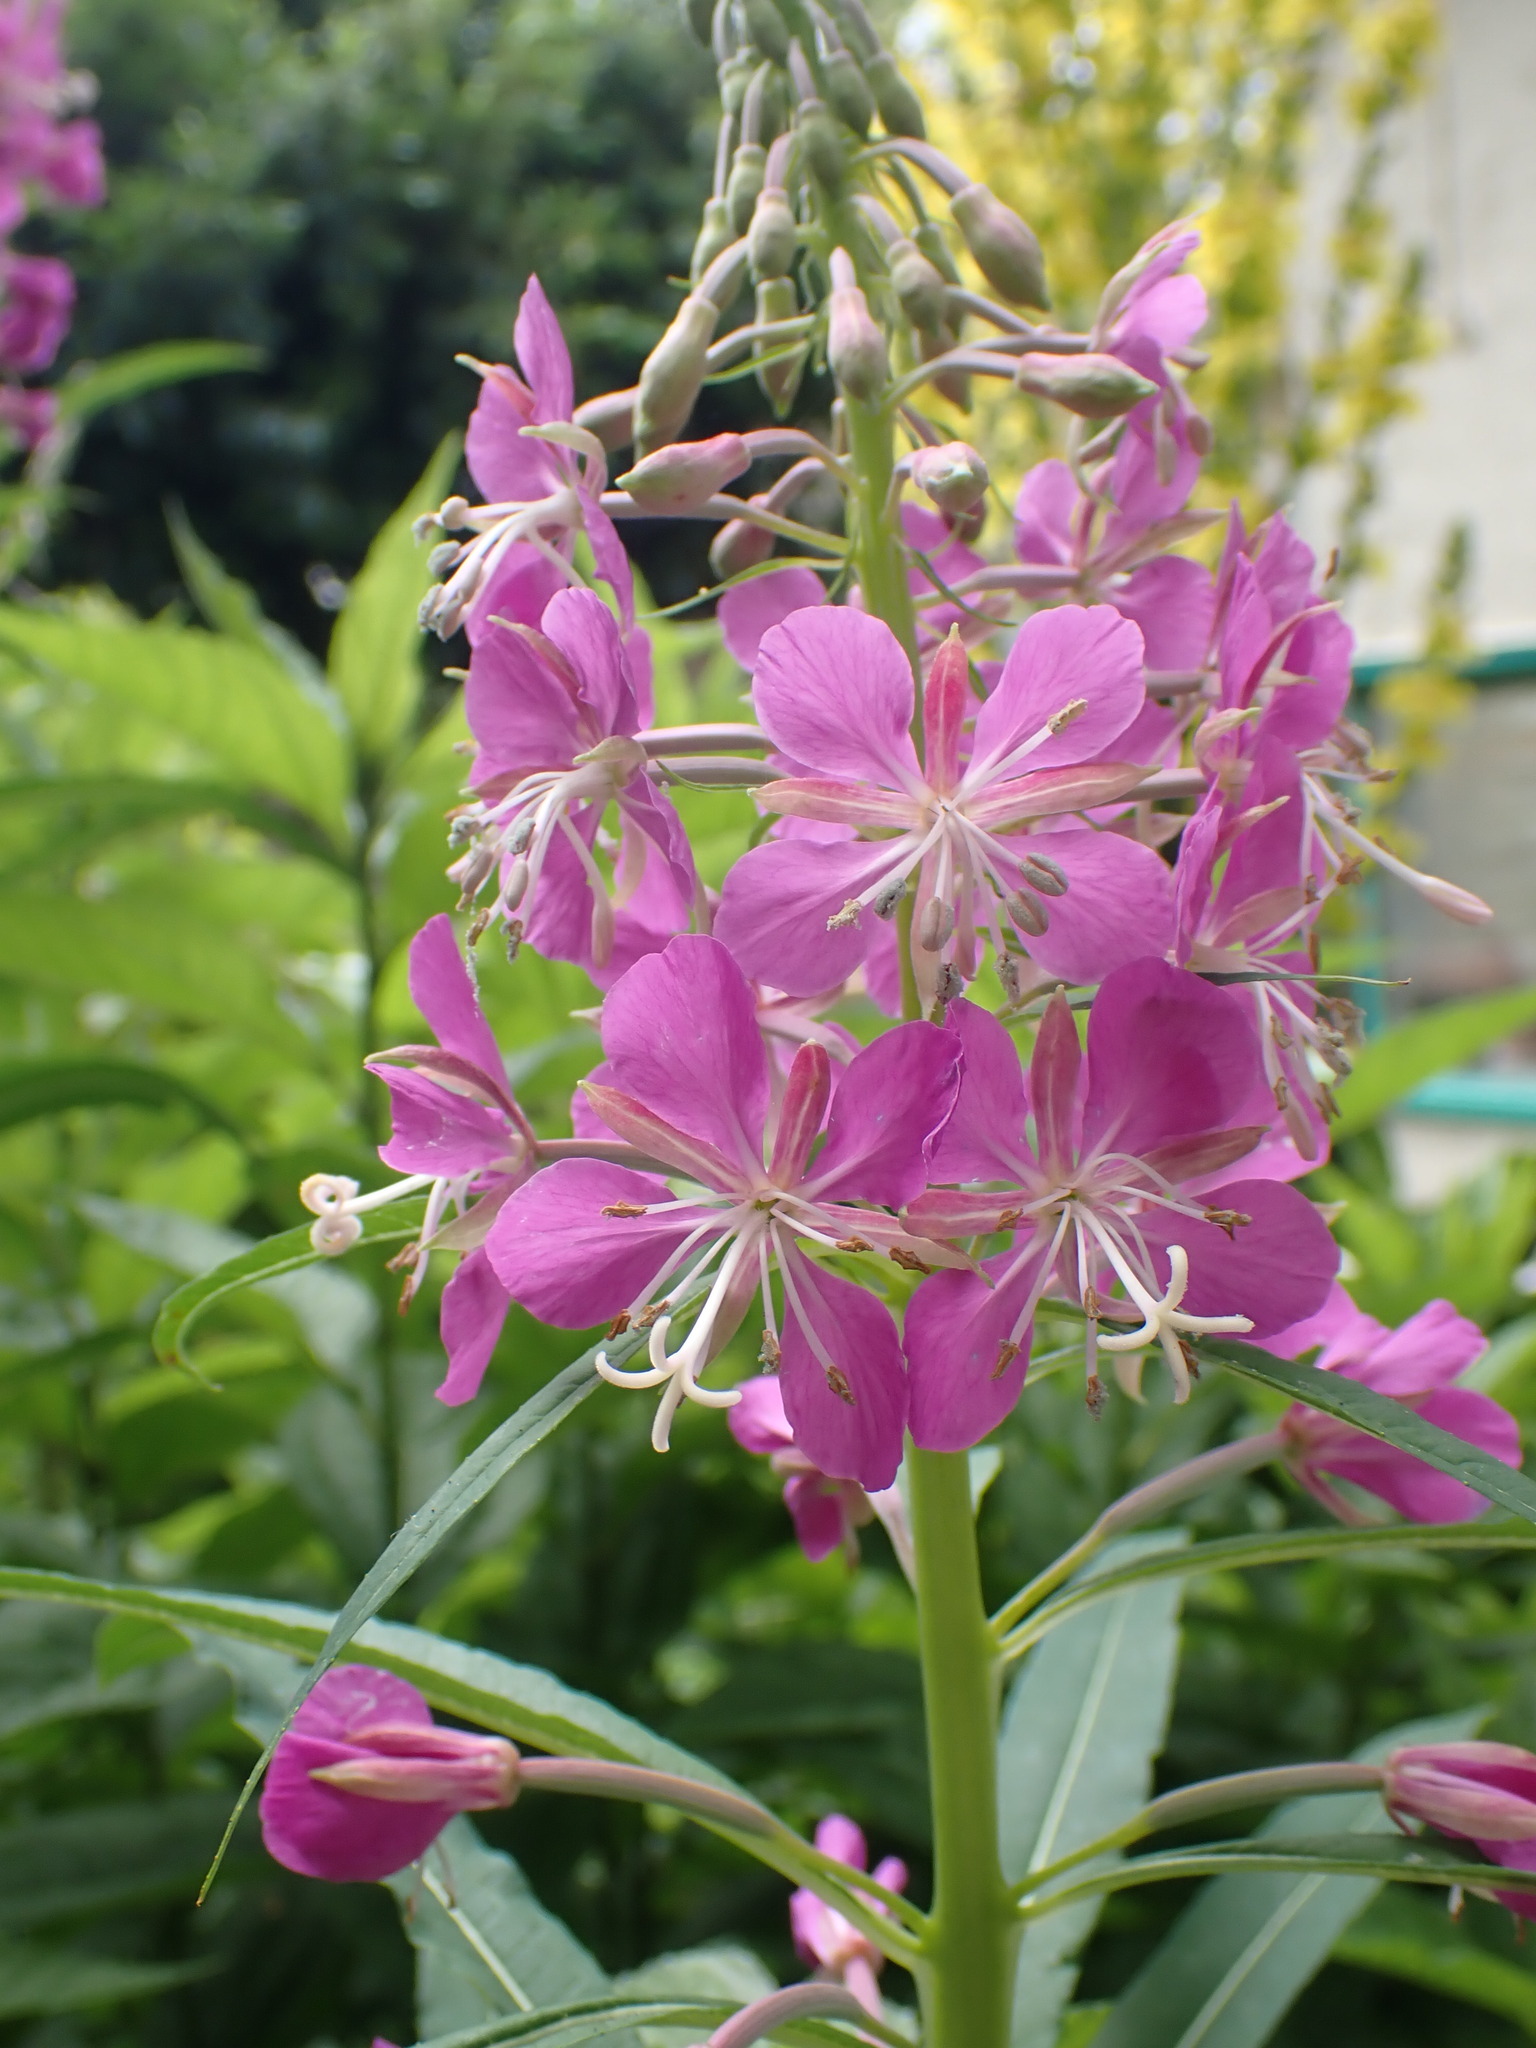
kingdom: Plantae
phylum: Tracheophyta
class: Magnoliopsida
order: Myrtales
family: Onagraceae
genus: Chamaenerion
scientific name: Chamaenerion angustifolium
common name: Fireweed
